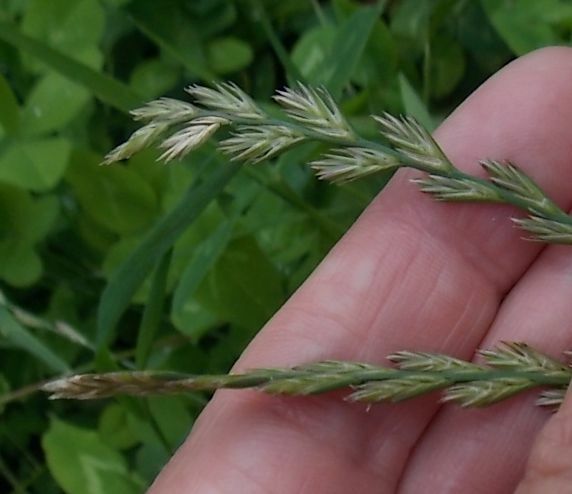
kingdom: Plantae
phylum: Tracheophyta
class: Liliopsida
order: Poales
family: Poaceae
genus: Lolium
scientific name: Lolium perenne
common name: Perennial ryegrass
